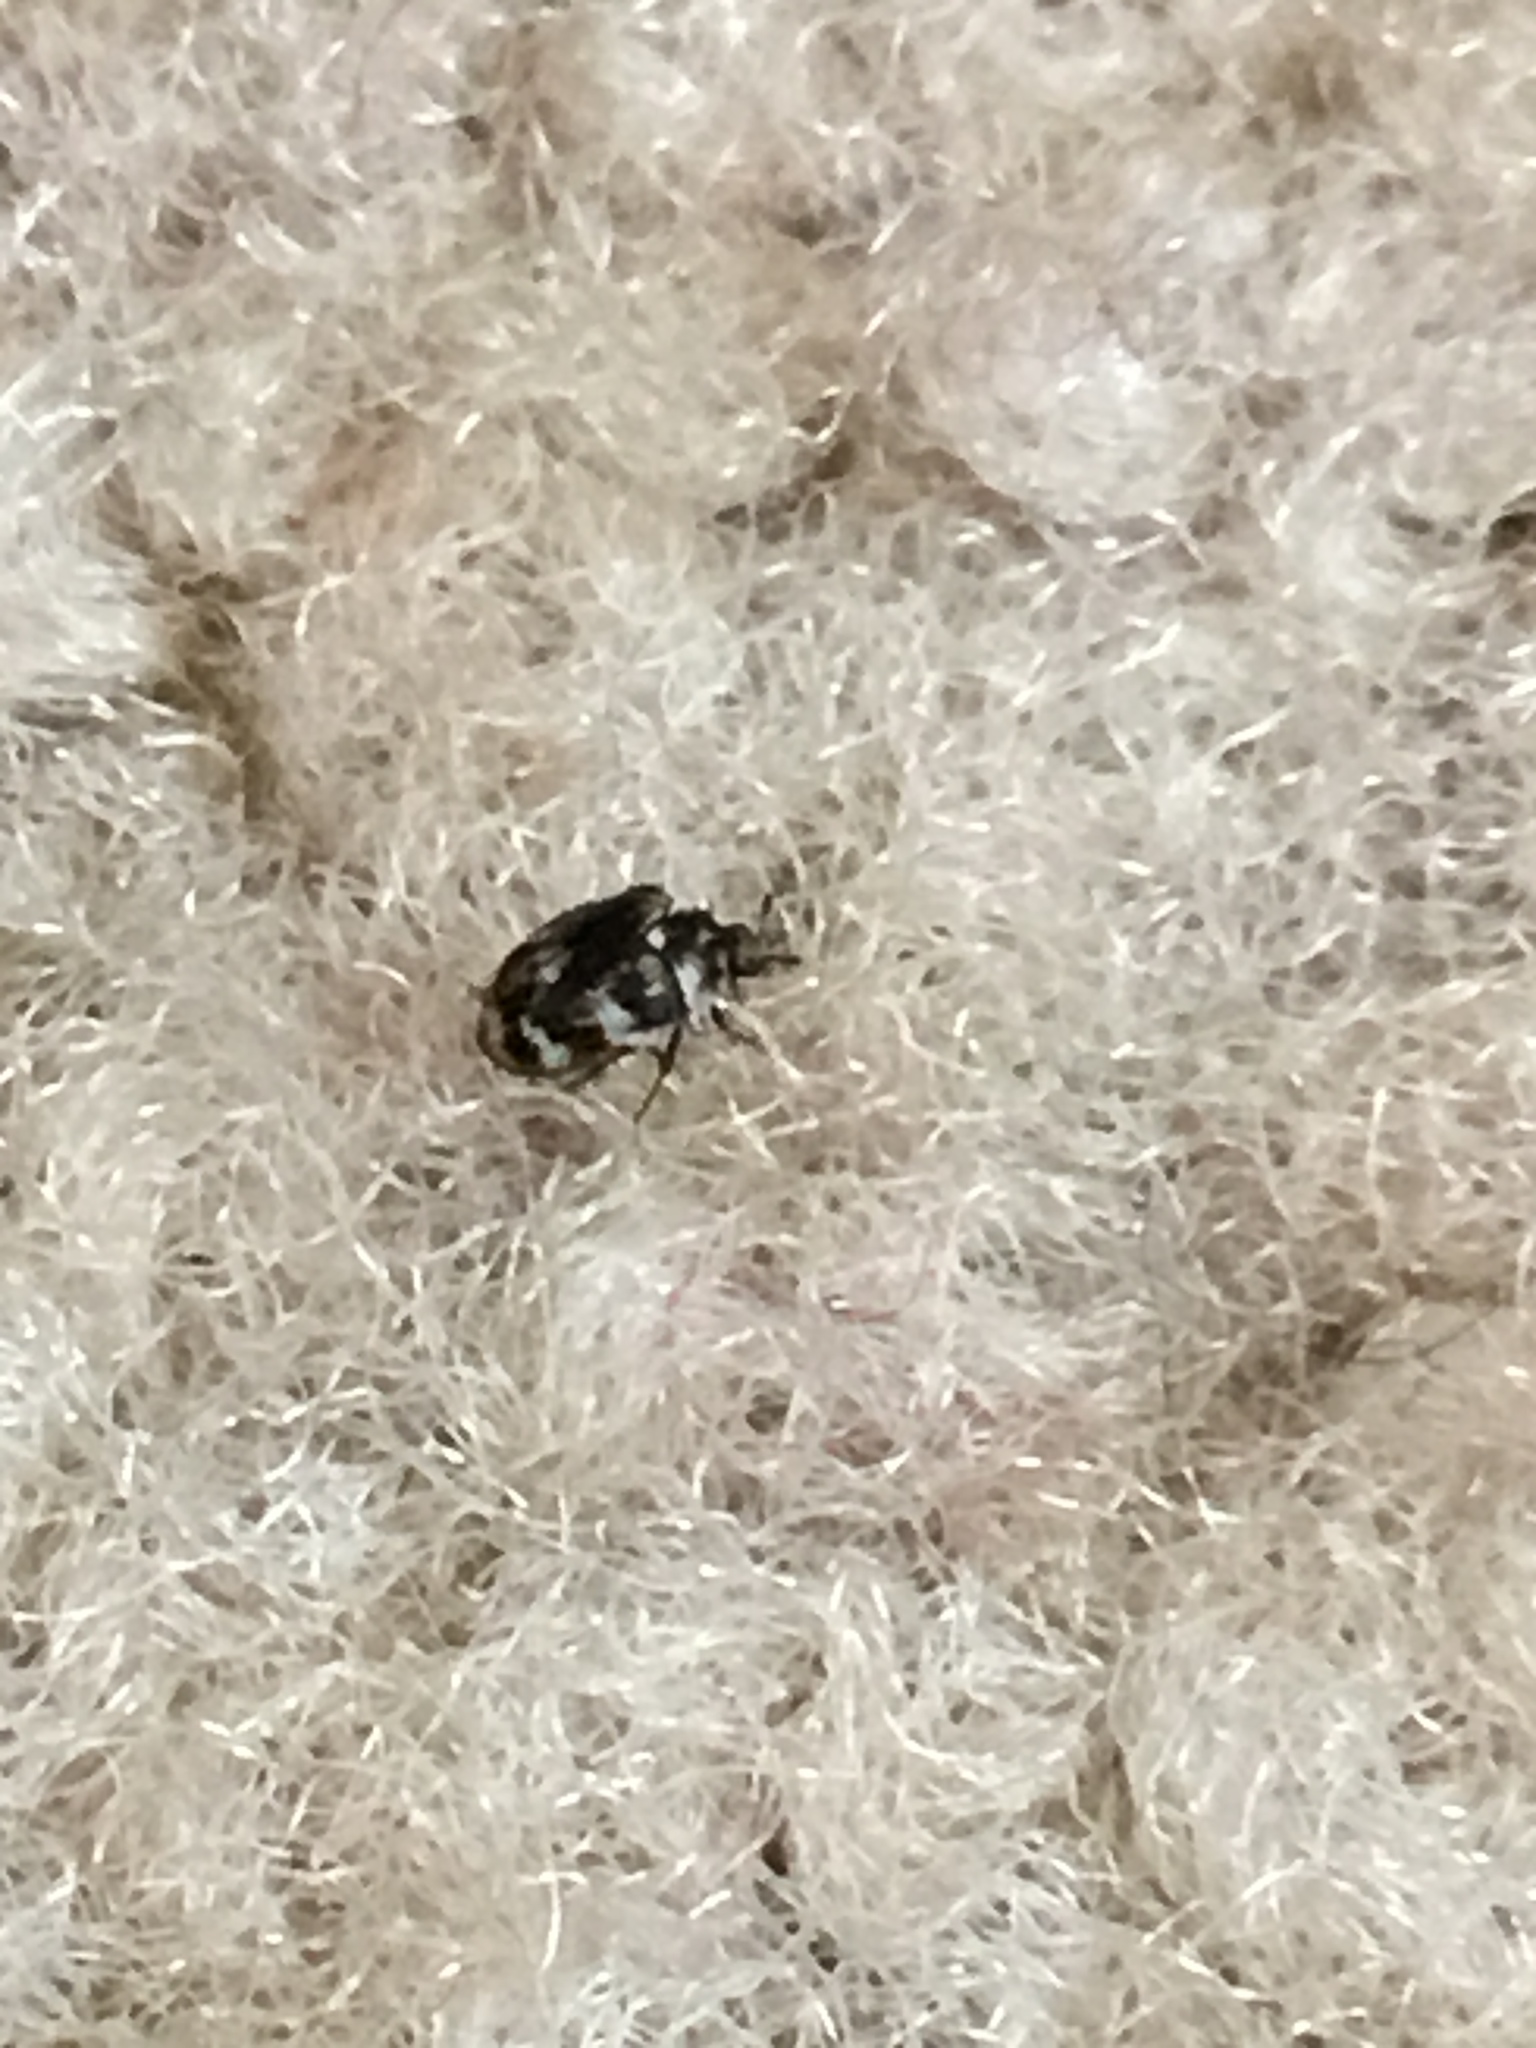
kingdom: Animalia
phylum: Arthropoda
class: Insecta
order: Coleoptera
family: Dermestidae
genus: Anthrenus
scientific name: Anthrenus verbasci
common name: Varied carpet beetle
